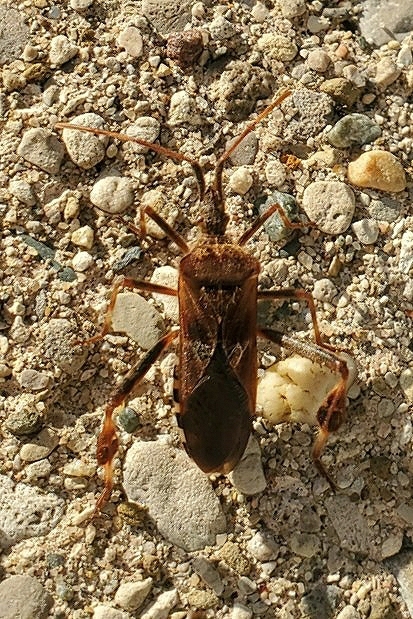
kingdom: Animalia
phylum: Arthropoda
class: Insecta
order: Hemiptera
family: Coreidae
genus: Leptoglossus
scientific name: Leptoglossus occidentalis
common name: Western conifer-seed bug
